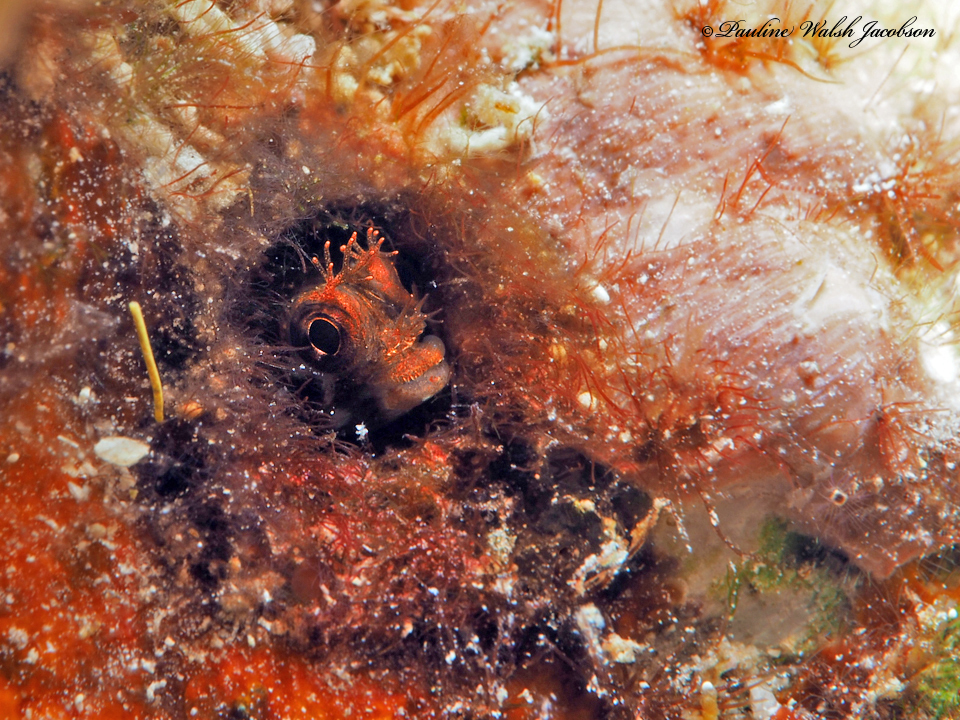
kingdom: Animalia
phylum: Chordata
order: Perciformes
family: Chaenopsidae
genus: Acanthemblemaria
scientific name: Acanthemblemaria aspera
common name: Roughhead blenny
